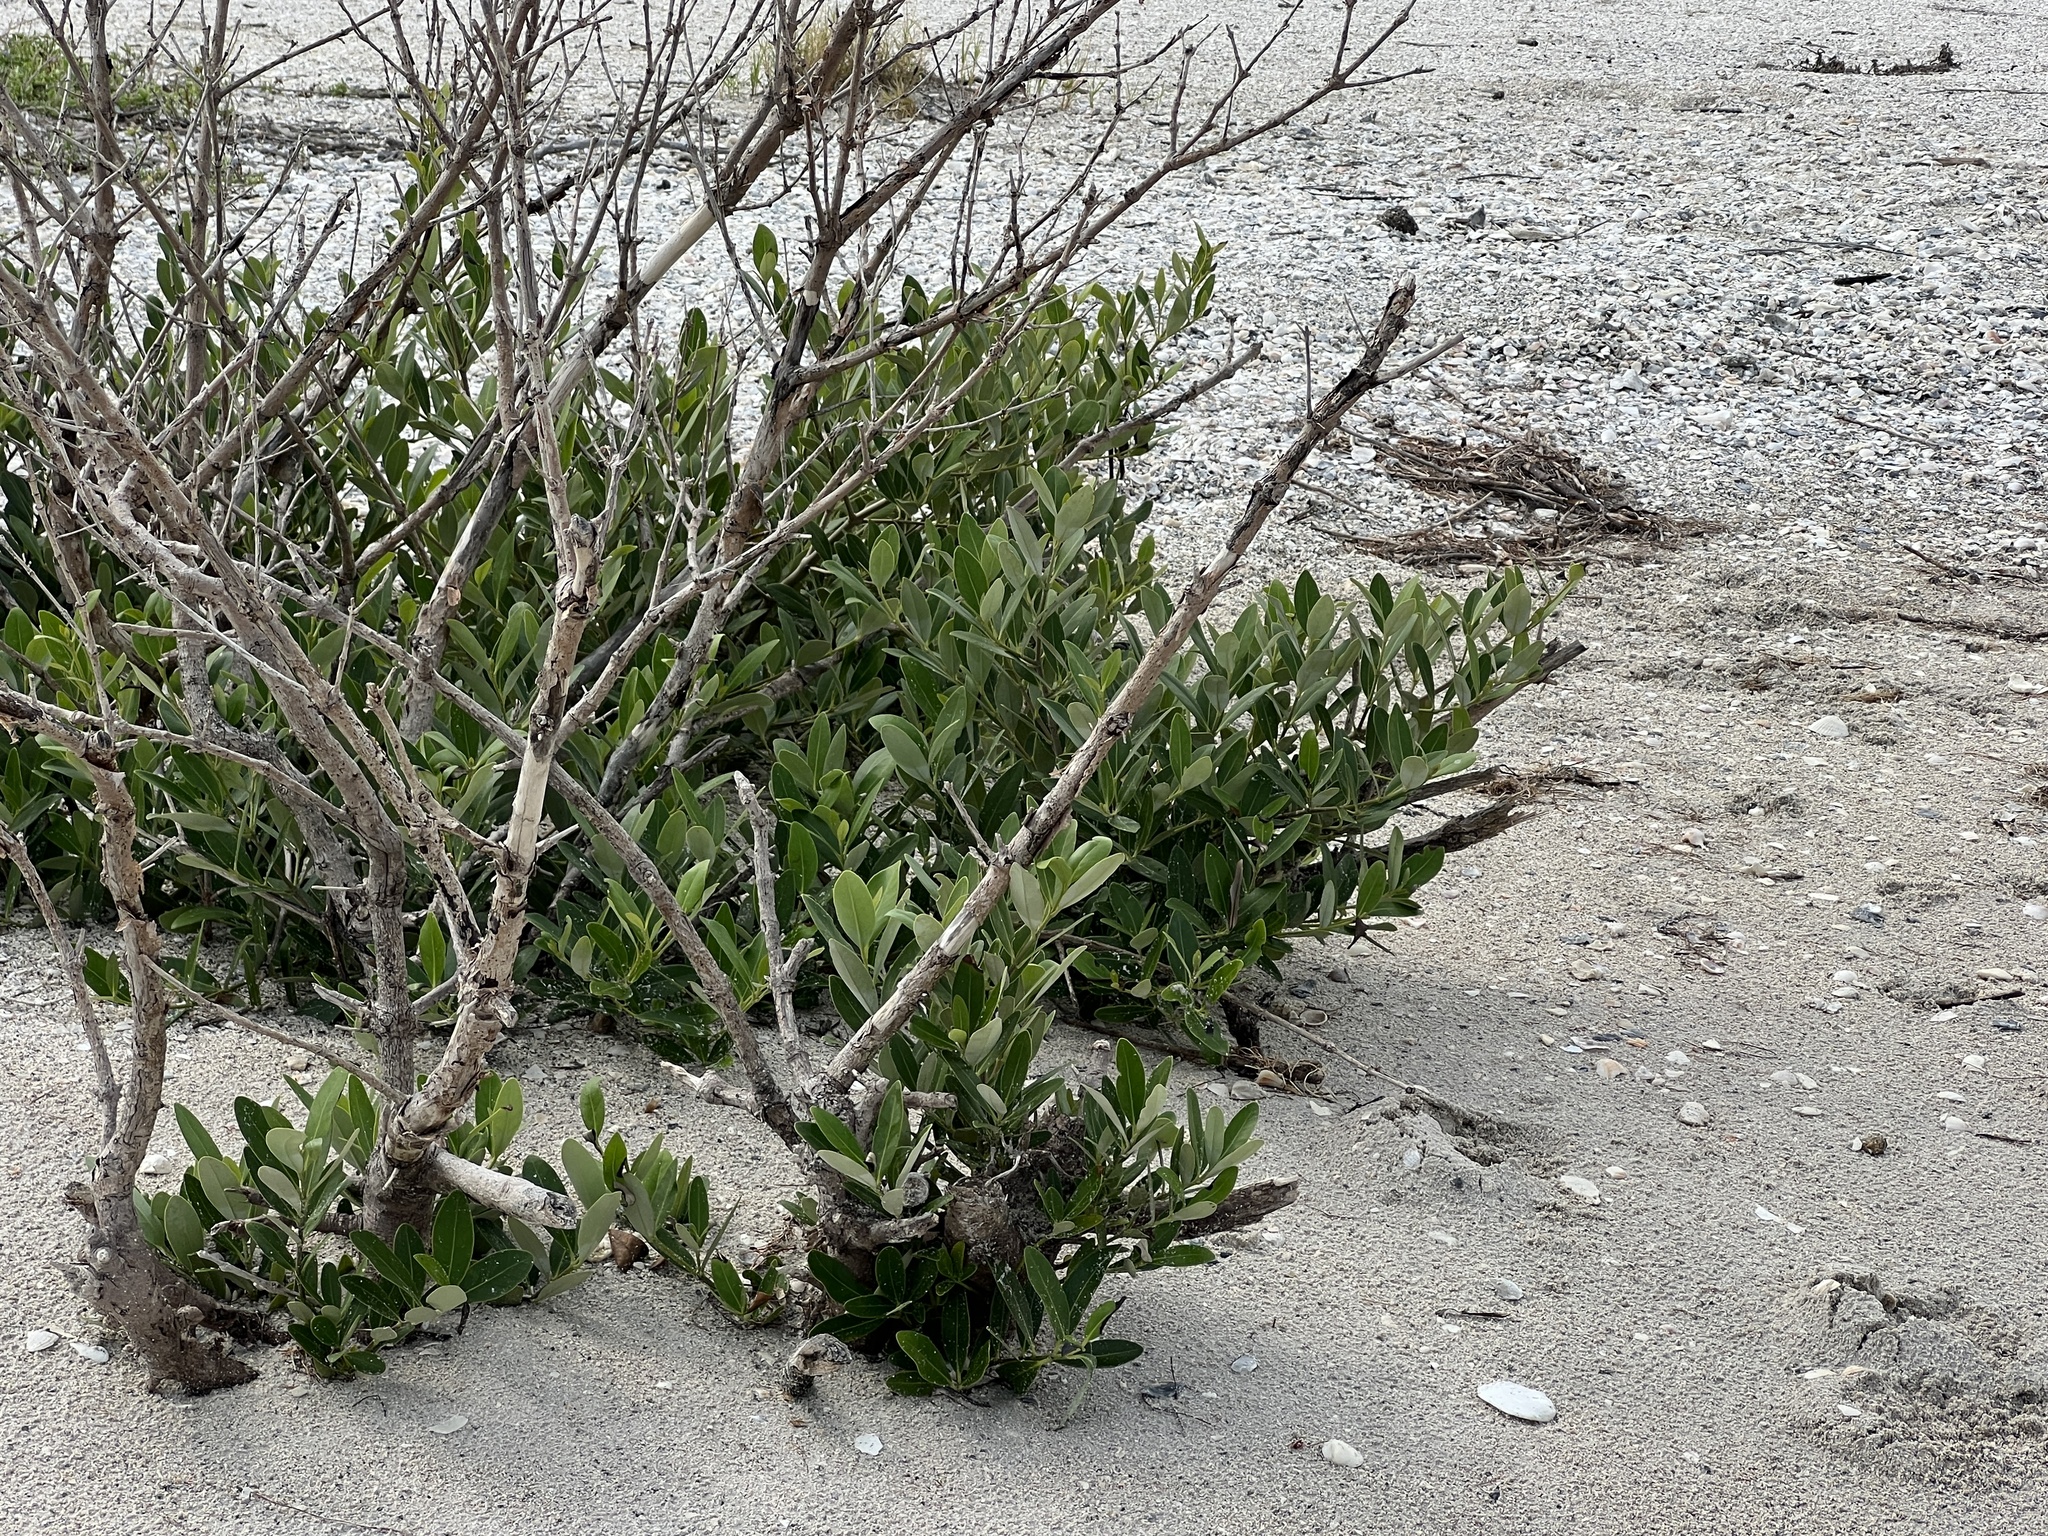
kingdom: Plantae
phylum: Tracheophyta
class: Magnoliopsida
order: Lamiales
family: Acanthaceae
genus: Avicennia
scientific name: Avicennia germinans
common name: Black mangrove
